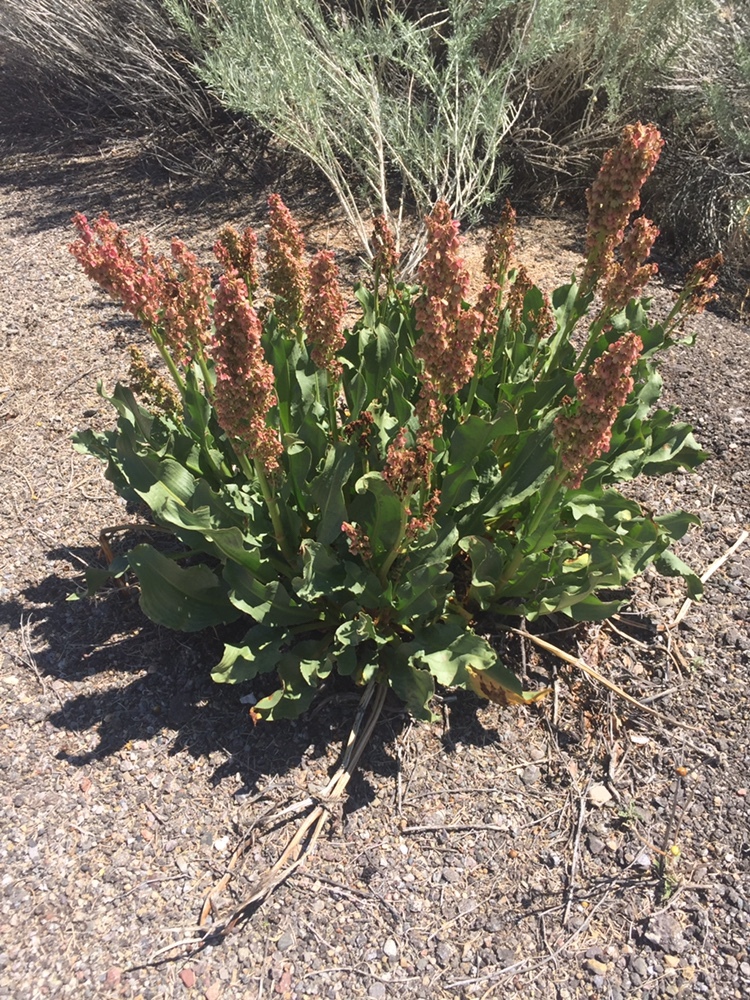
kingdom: Plantae
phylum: Tracheophyta
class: Magnoliopsida
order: Caryophyllales
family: Polygonaceae
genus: Rumex
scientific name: Rumex hymenosepalus
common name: Ganagra
